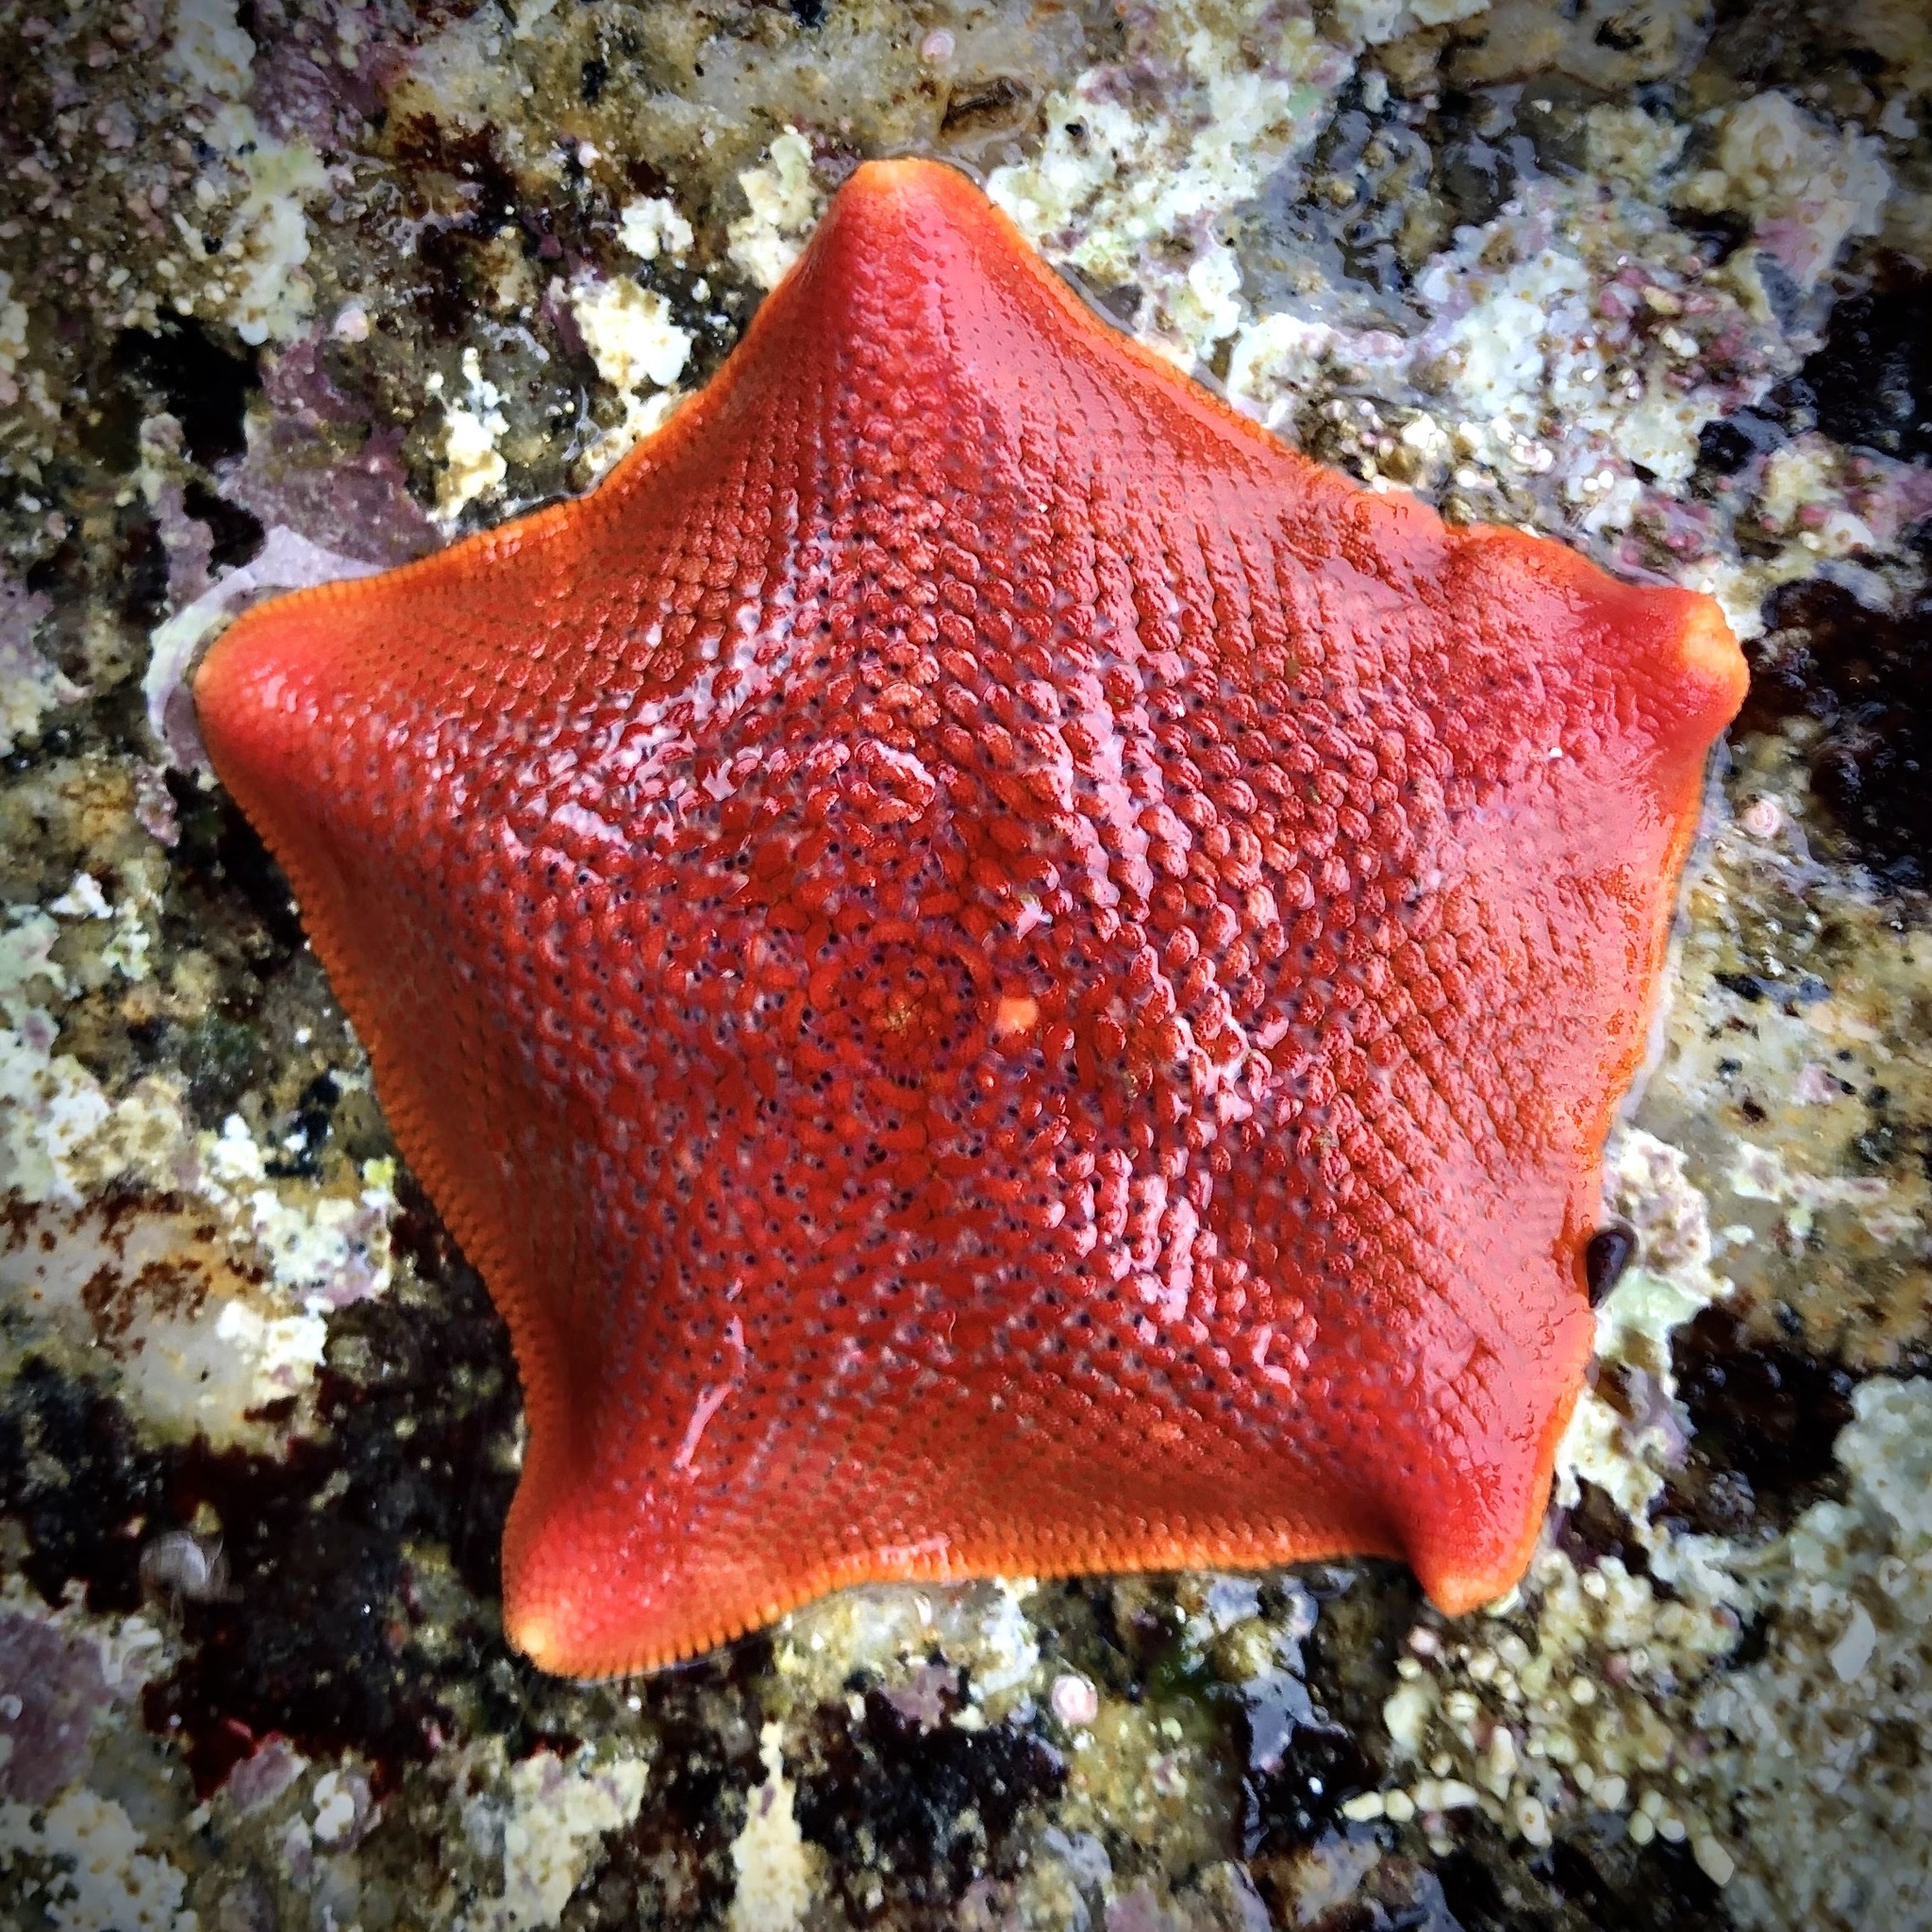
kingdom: Animalia
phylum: Echinodermata
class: Asteroidea
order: Valvatida
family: Asterinidae
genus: Patiria
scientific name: Patiria miniata
